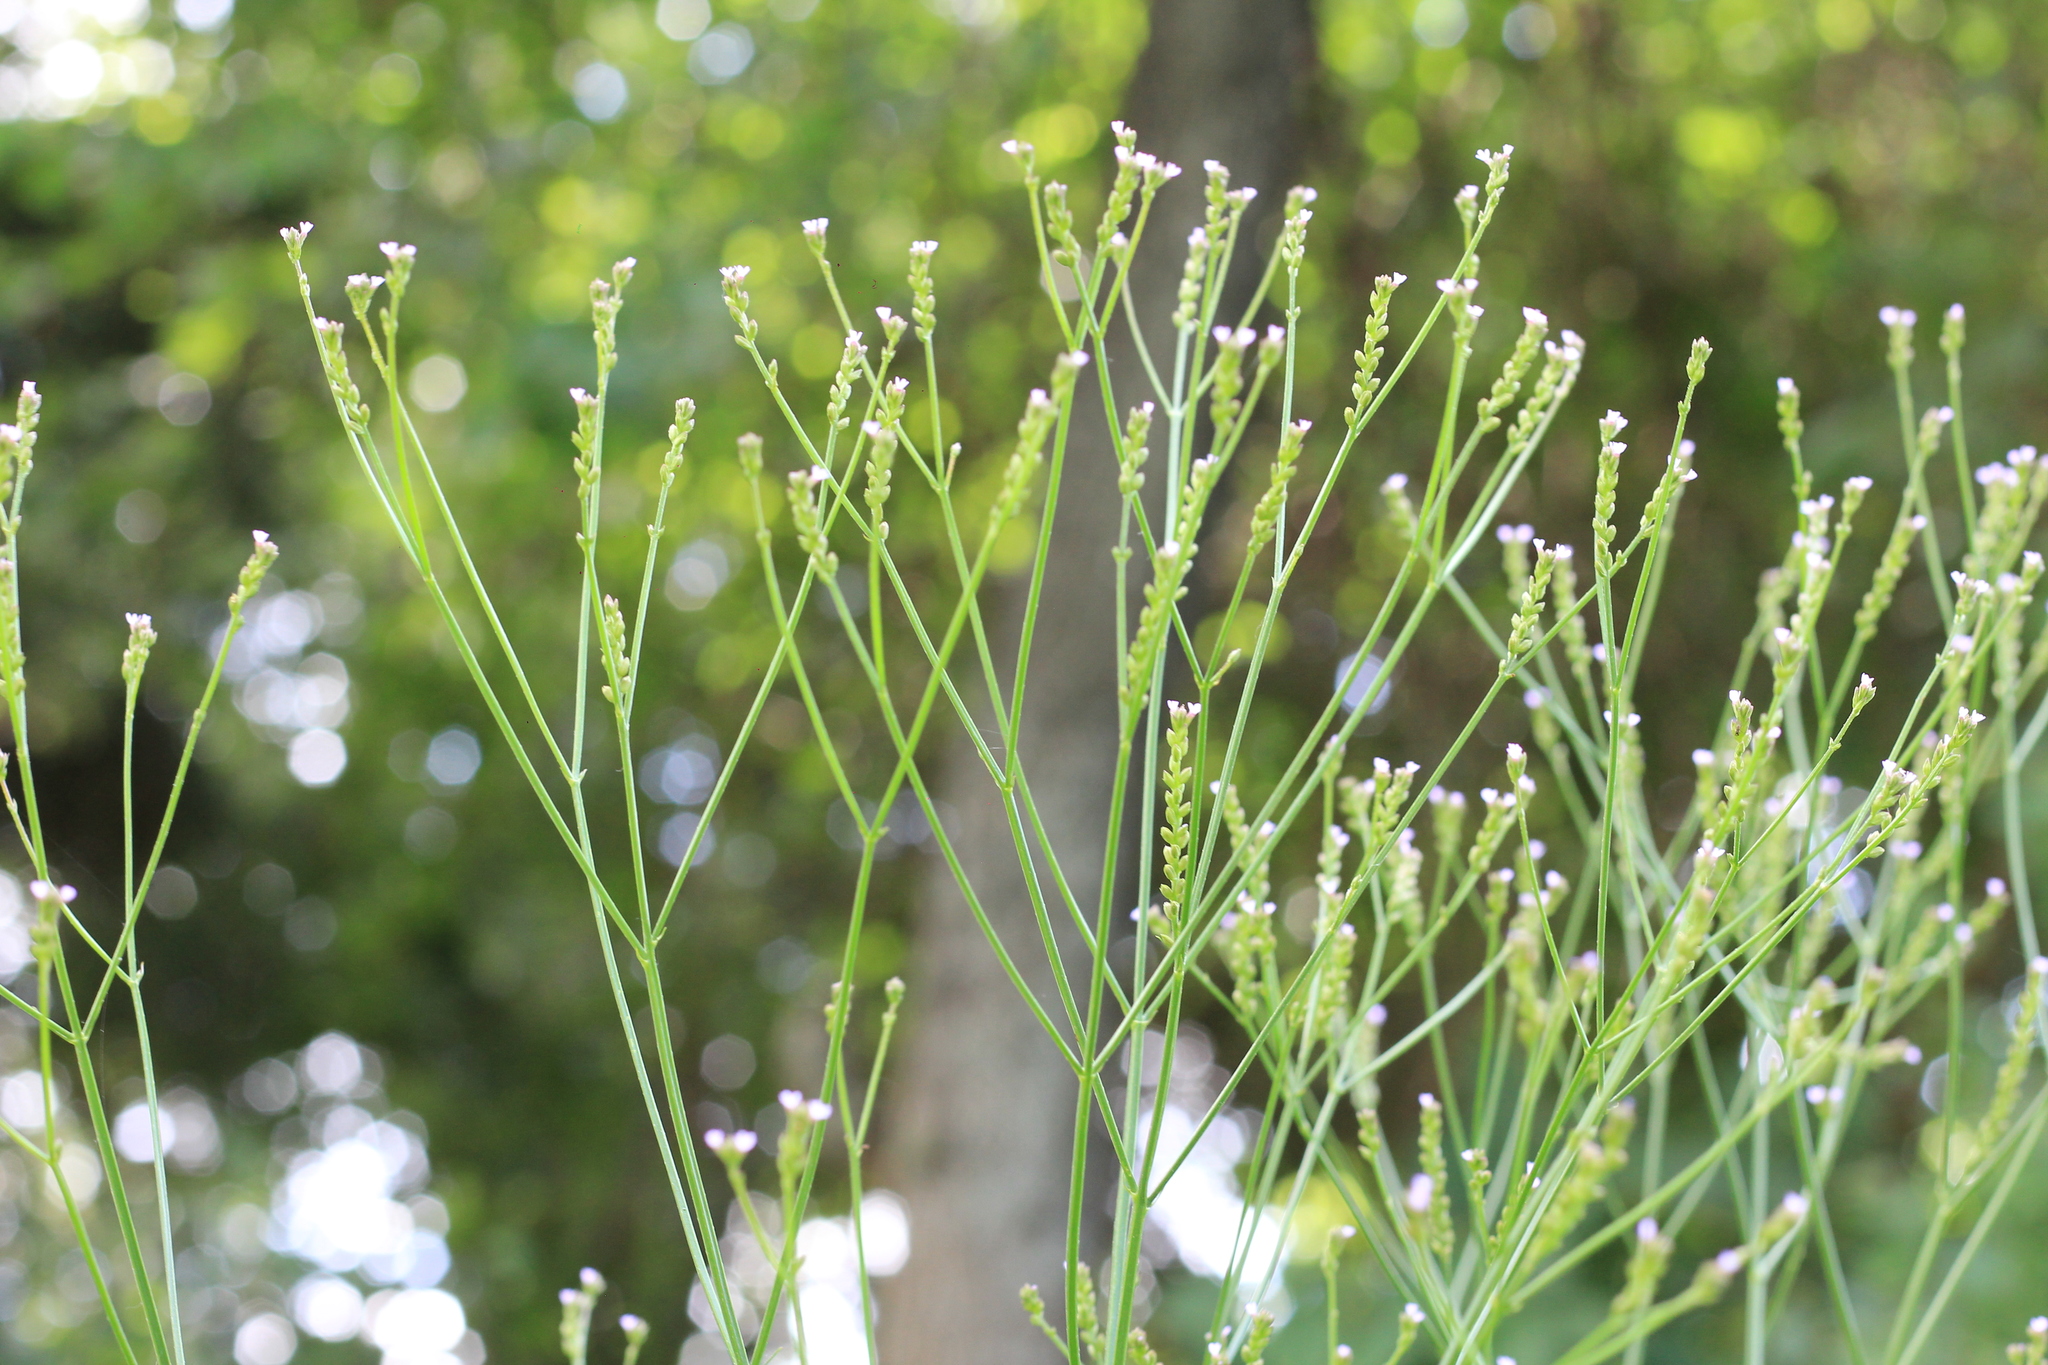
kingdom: Plantae
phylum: Tracheophyta
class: Magnoliopsida
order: Lamiales
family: Verbenaceae
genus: Verbena
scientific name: Verbena montevidensis
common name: Uruguayan vervain
